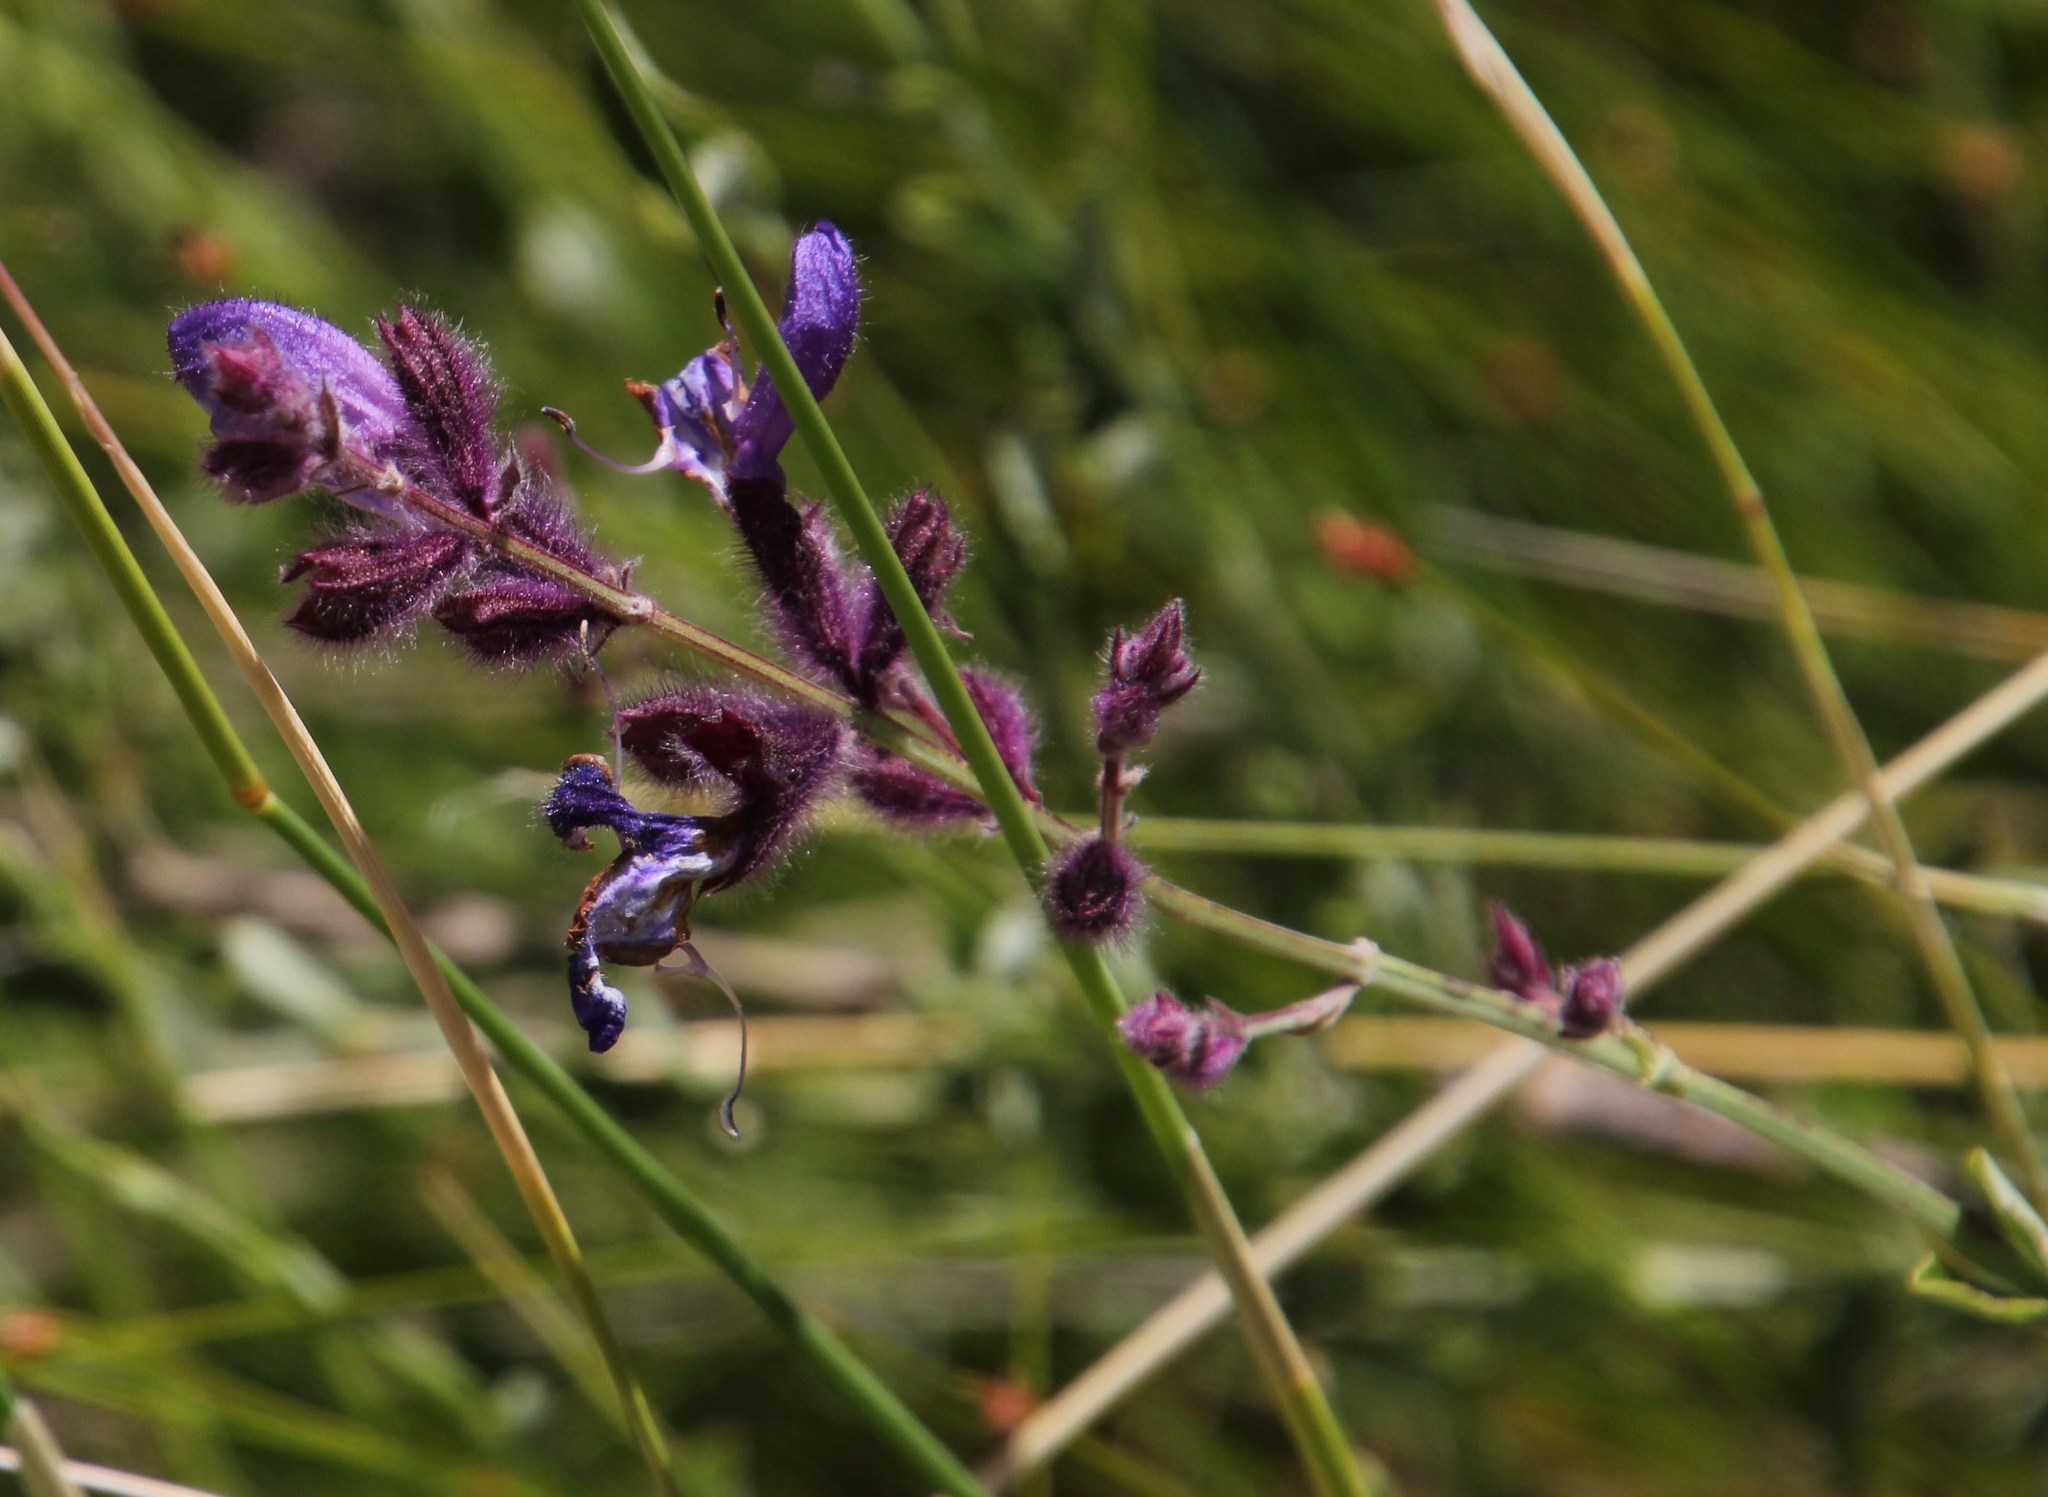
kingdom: Plantae
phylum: Tracheophyta
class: Magnoliopsida
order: Lamiales
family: Lamiaceae
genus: Salvia
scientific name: Salvia albicaulis
